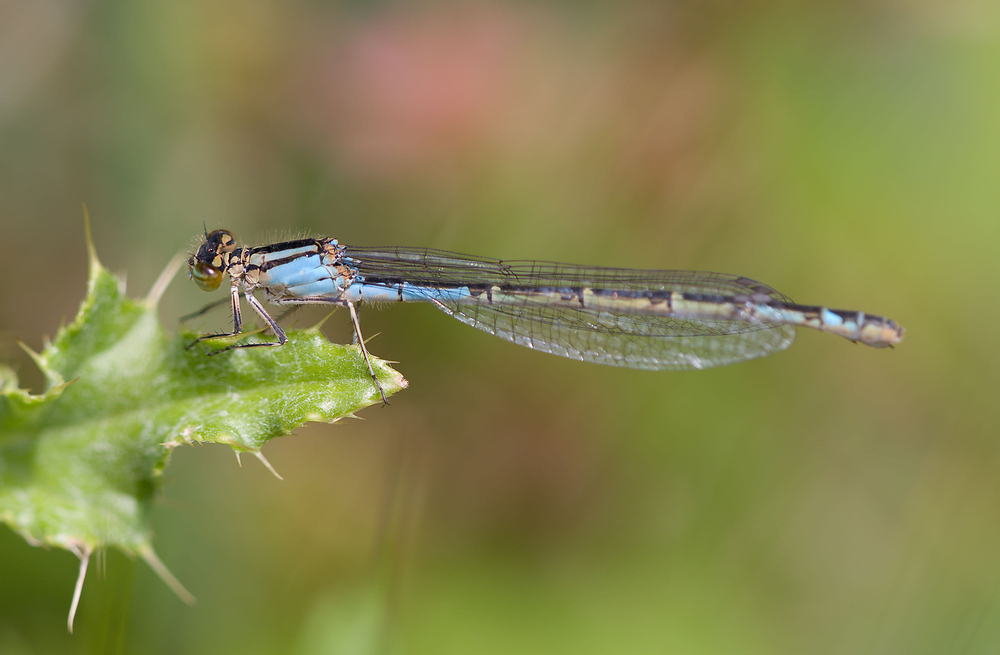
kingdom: Animalia
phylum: Arthropoda
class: Insecta
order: Odonata
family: Coenagrionidae
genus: Enallagma
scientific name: Enallagma cyathigerum
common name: Common blue damselfly
